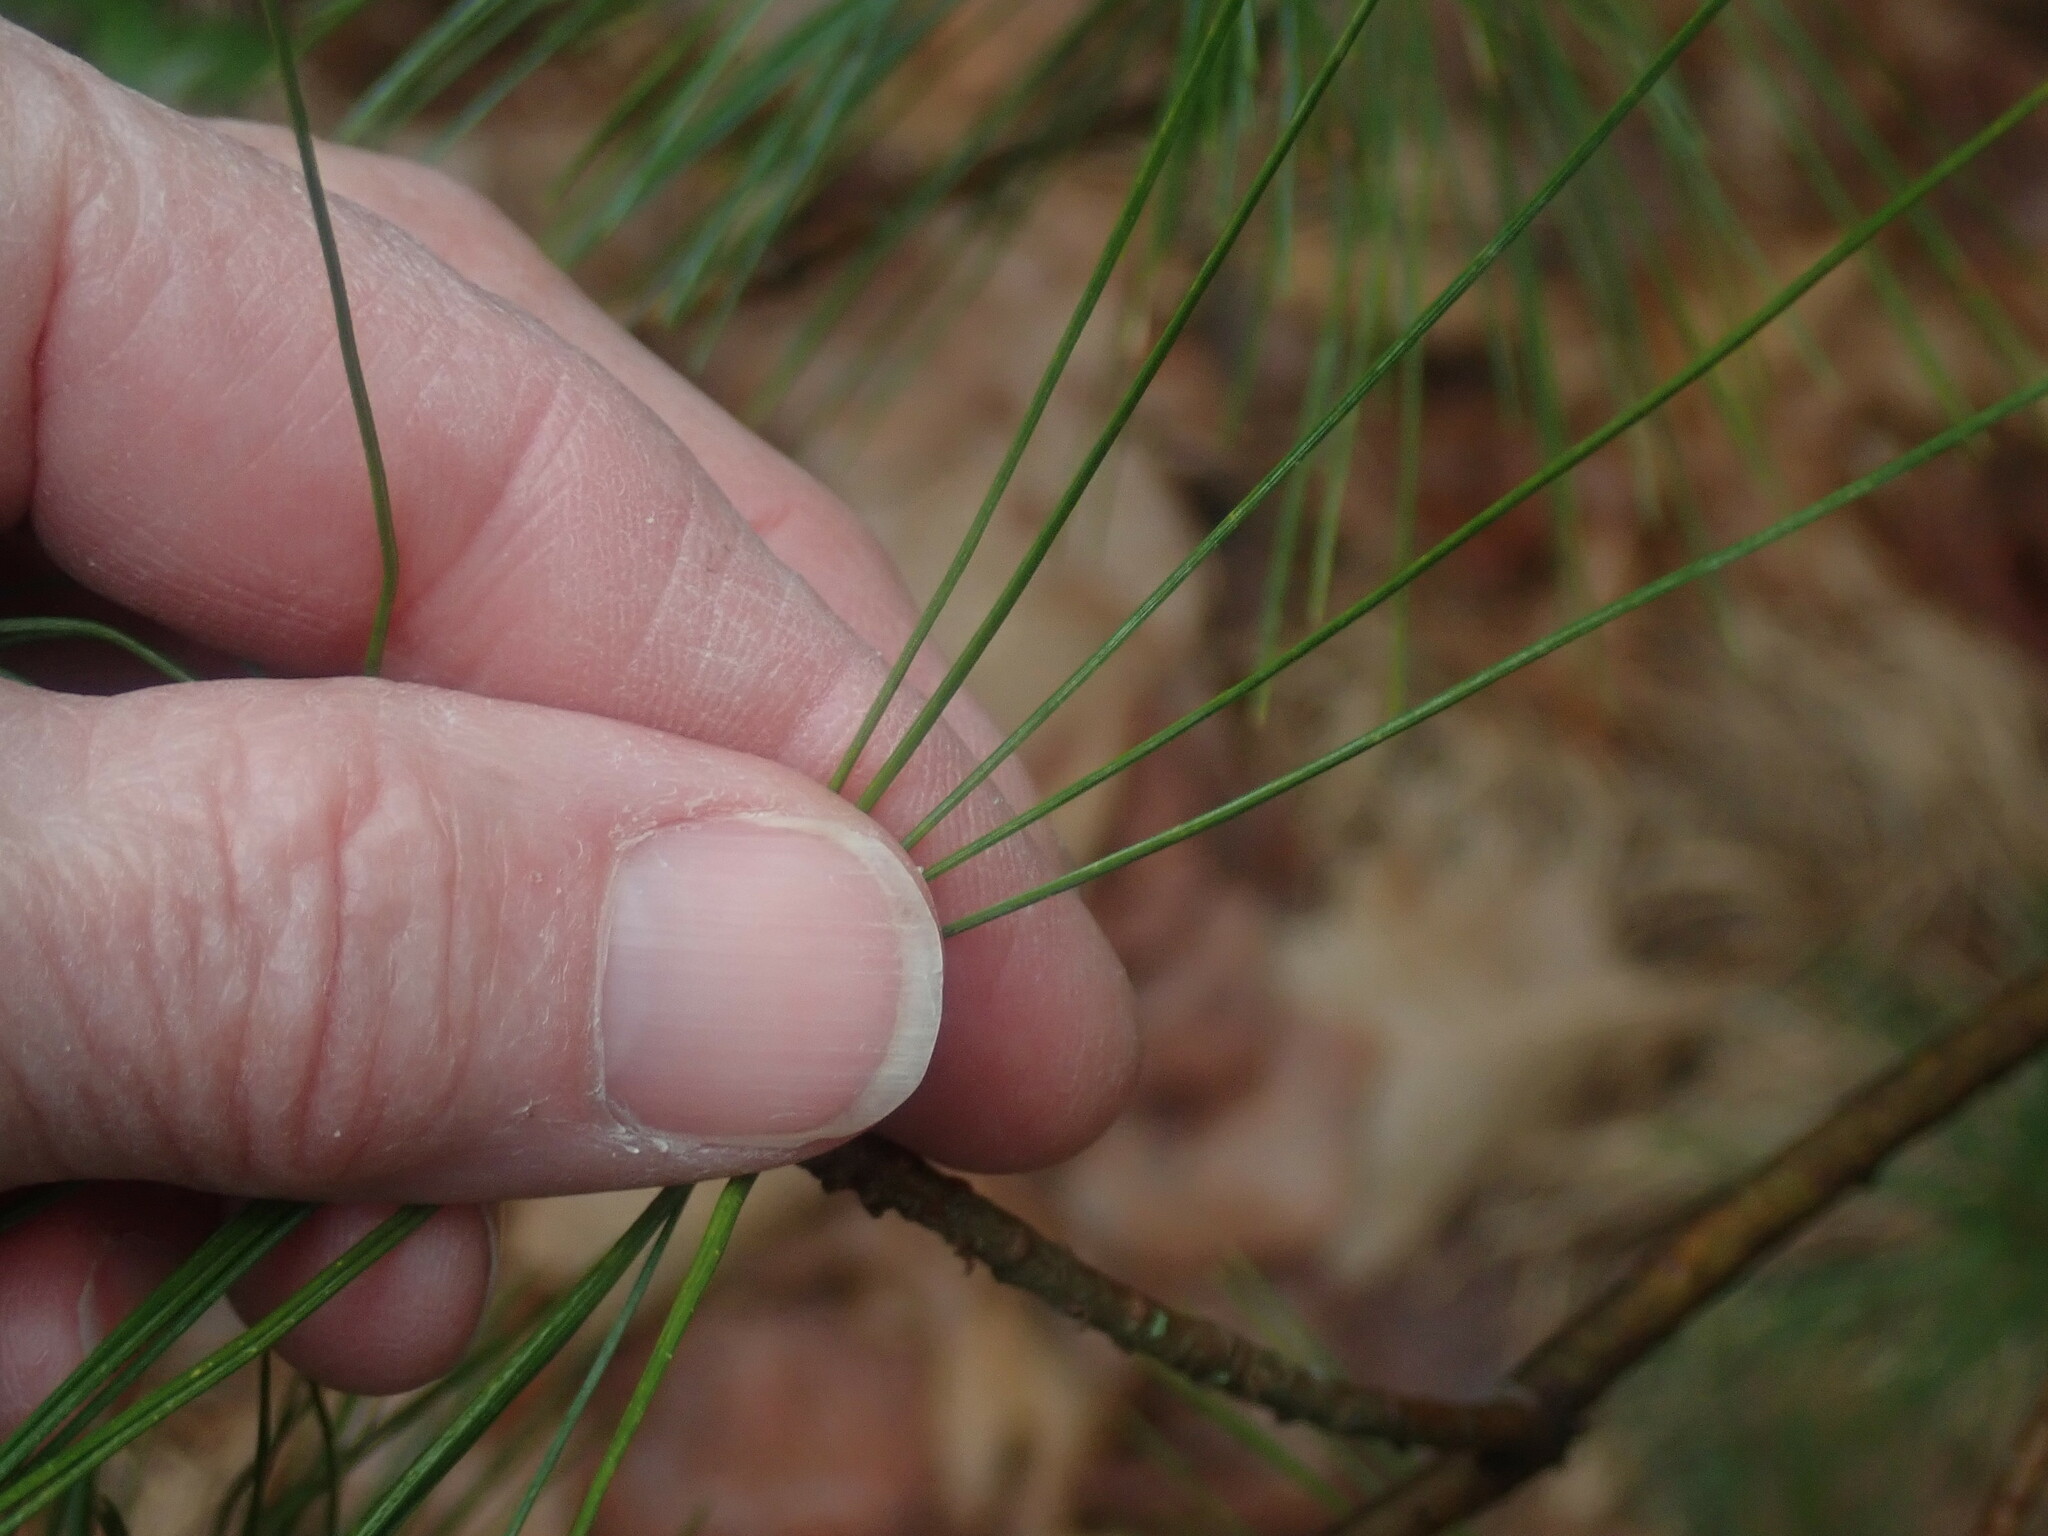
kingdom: Plantae
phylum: Tracheophyta
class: Pinopsida
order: Pinales
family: Pinaceae
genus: Pinus
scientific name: Pinus strobus
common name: Weymouth pine
